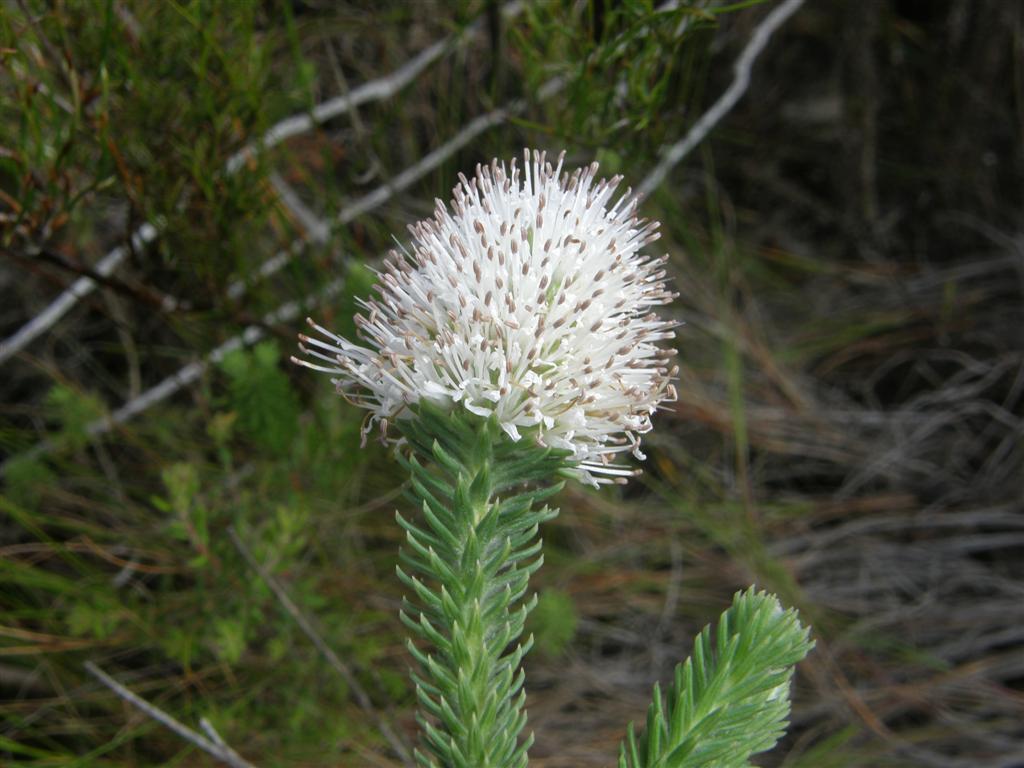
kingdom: Plantae
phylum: Tracheophyta
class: Magnoliopsida
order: Lamiales
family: Stilbaceae
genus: Stilbe
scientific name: Stilbe albiflora
